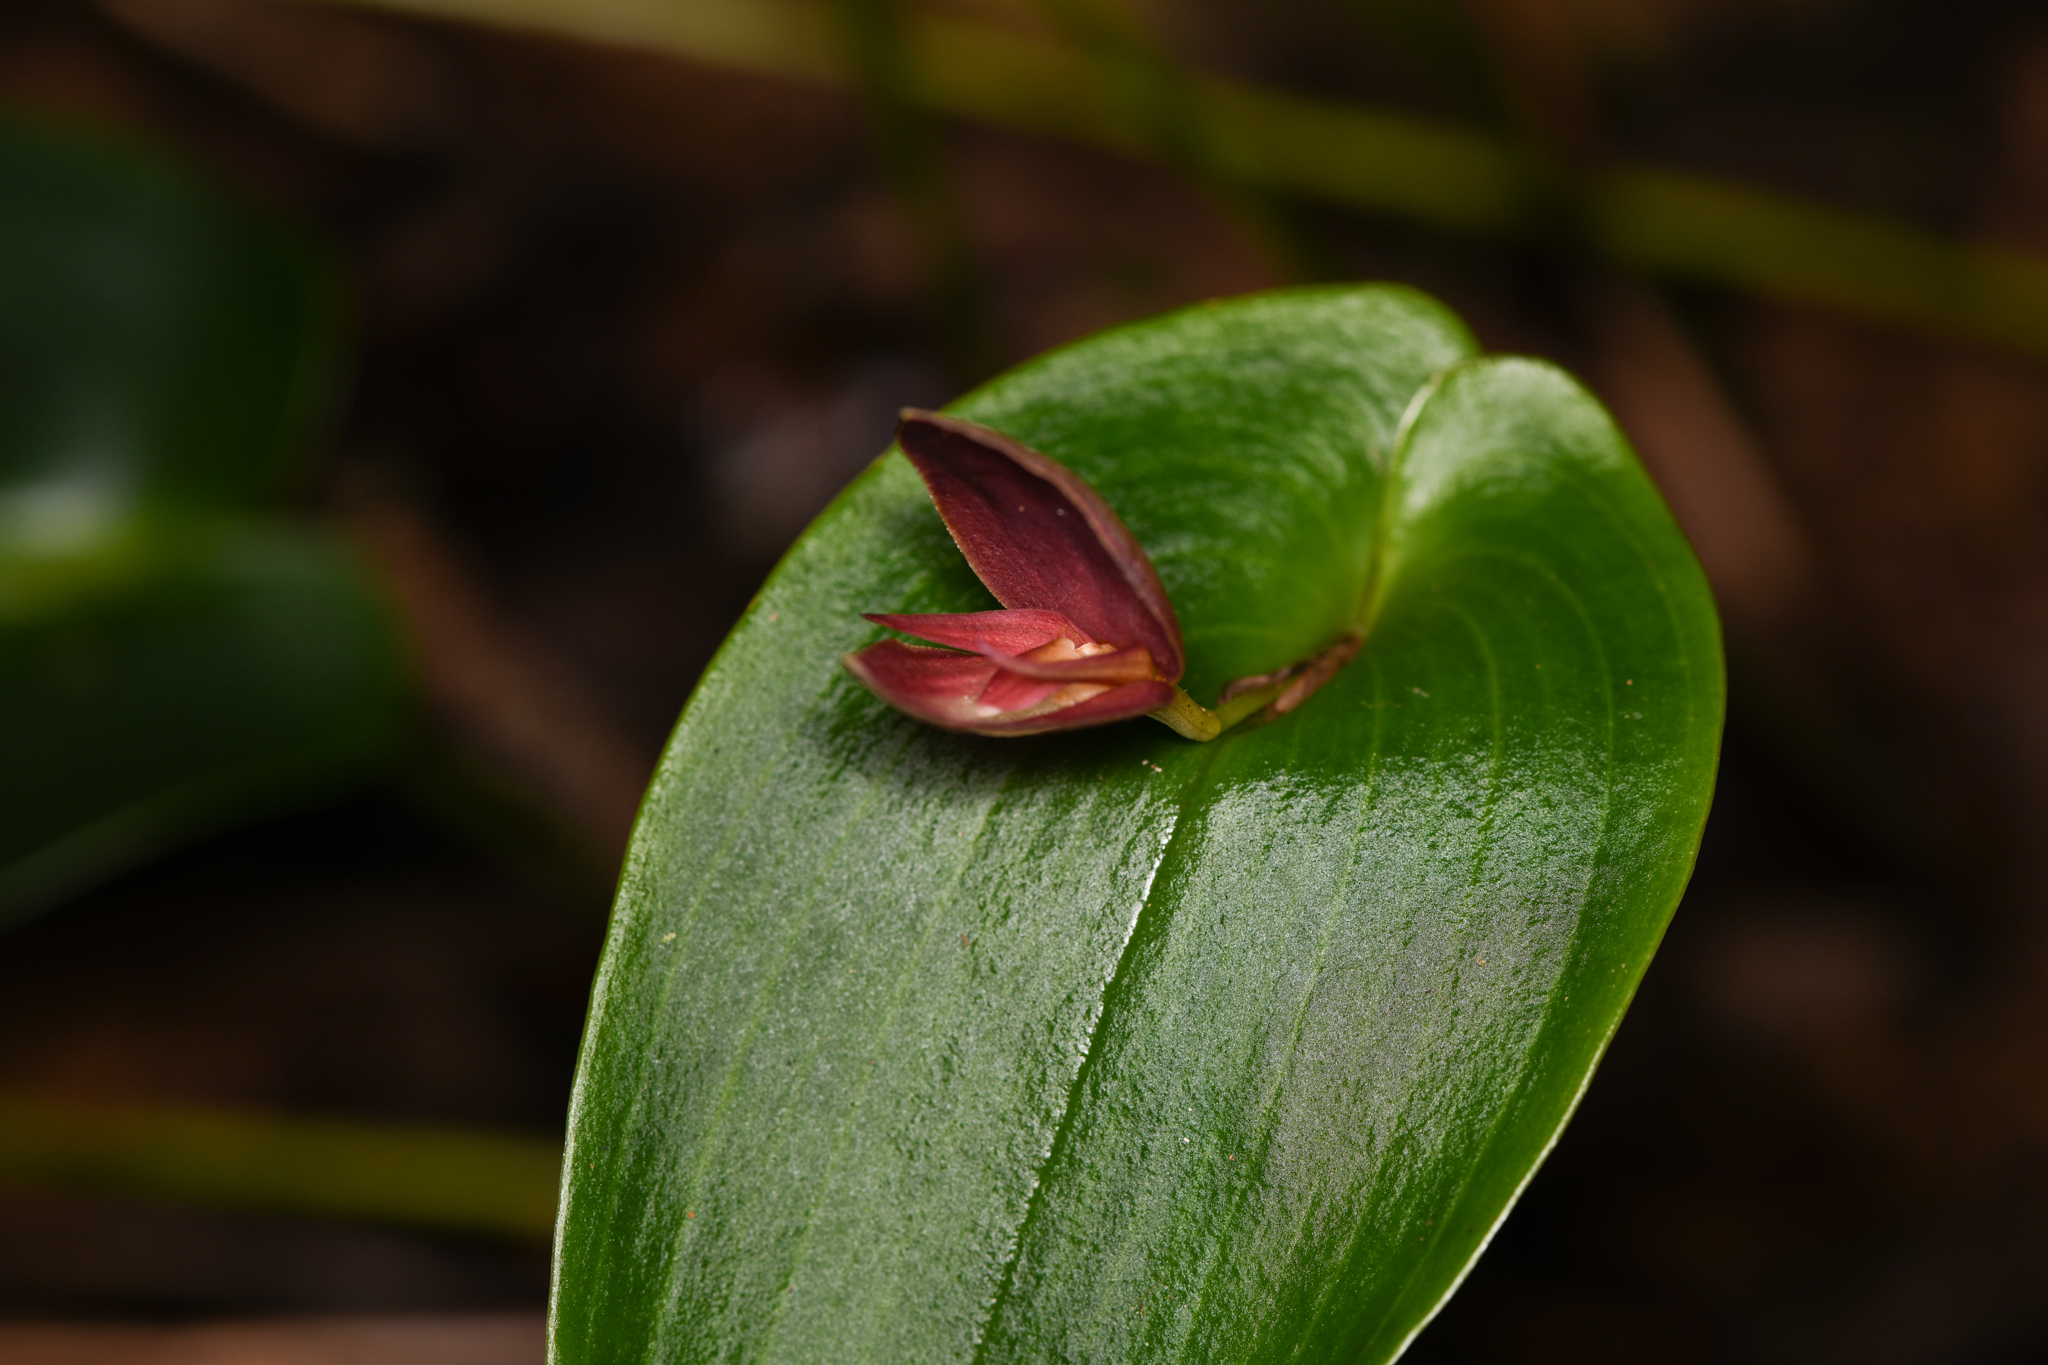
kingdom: Plantae
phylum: Tracheophyta
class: Liliopsida
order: Asparagales
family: Orchidaceae
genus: Pleurothallis
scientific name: Pleurothallis gonzaleziorum
